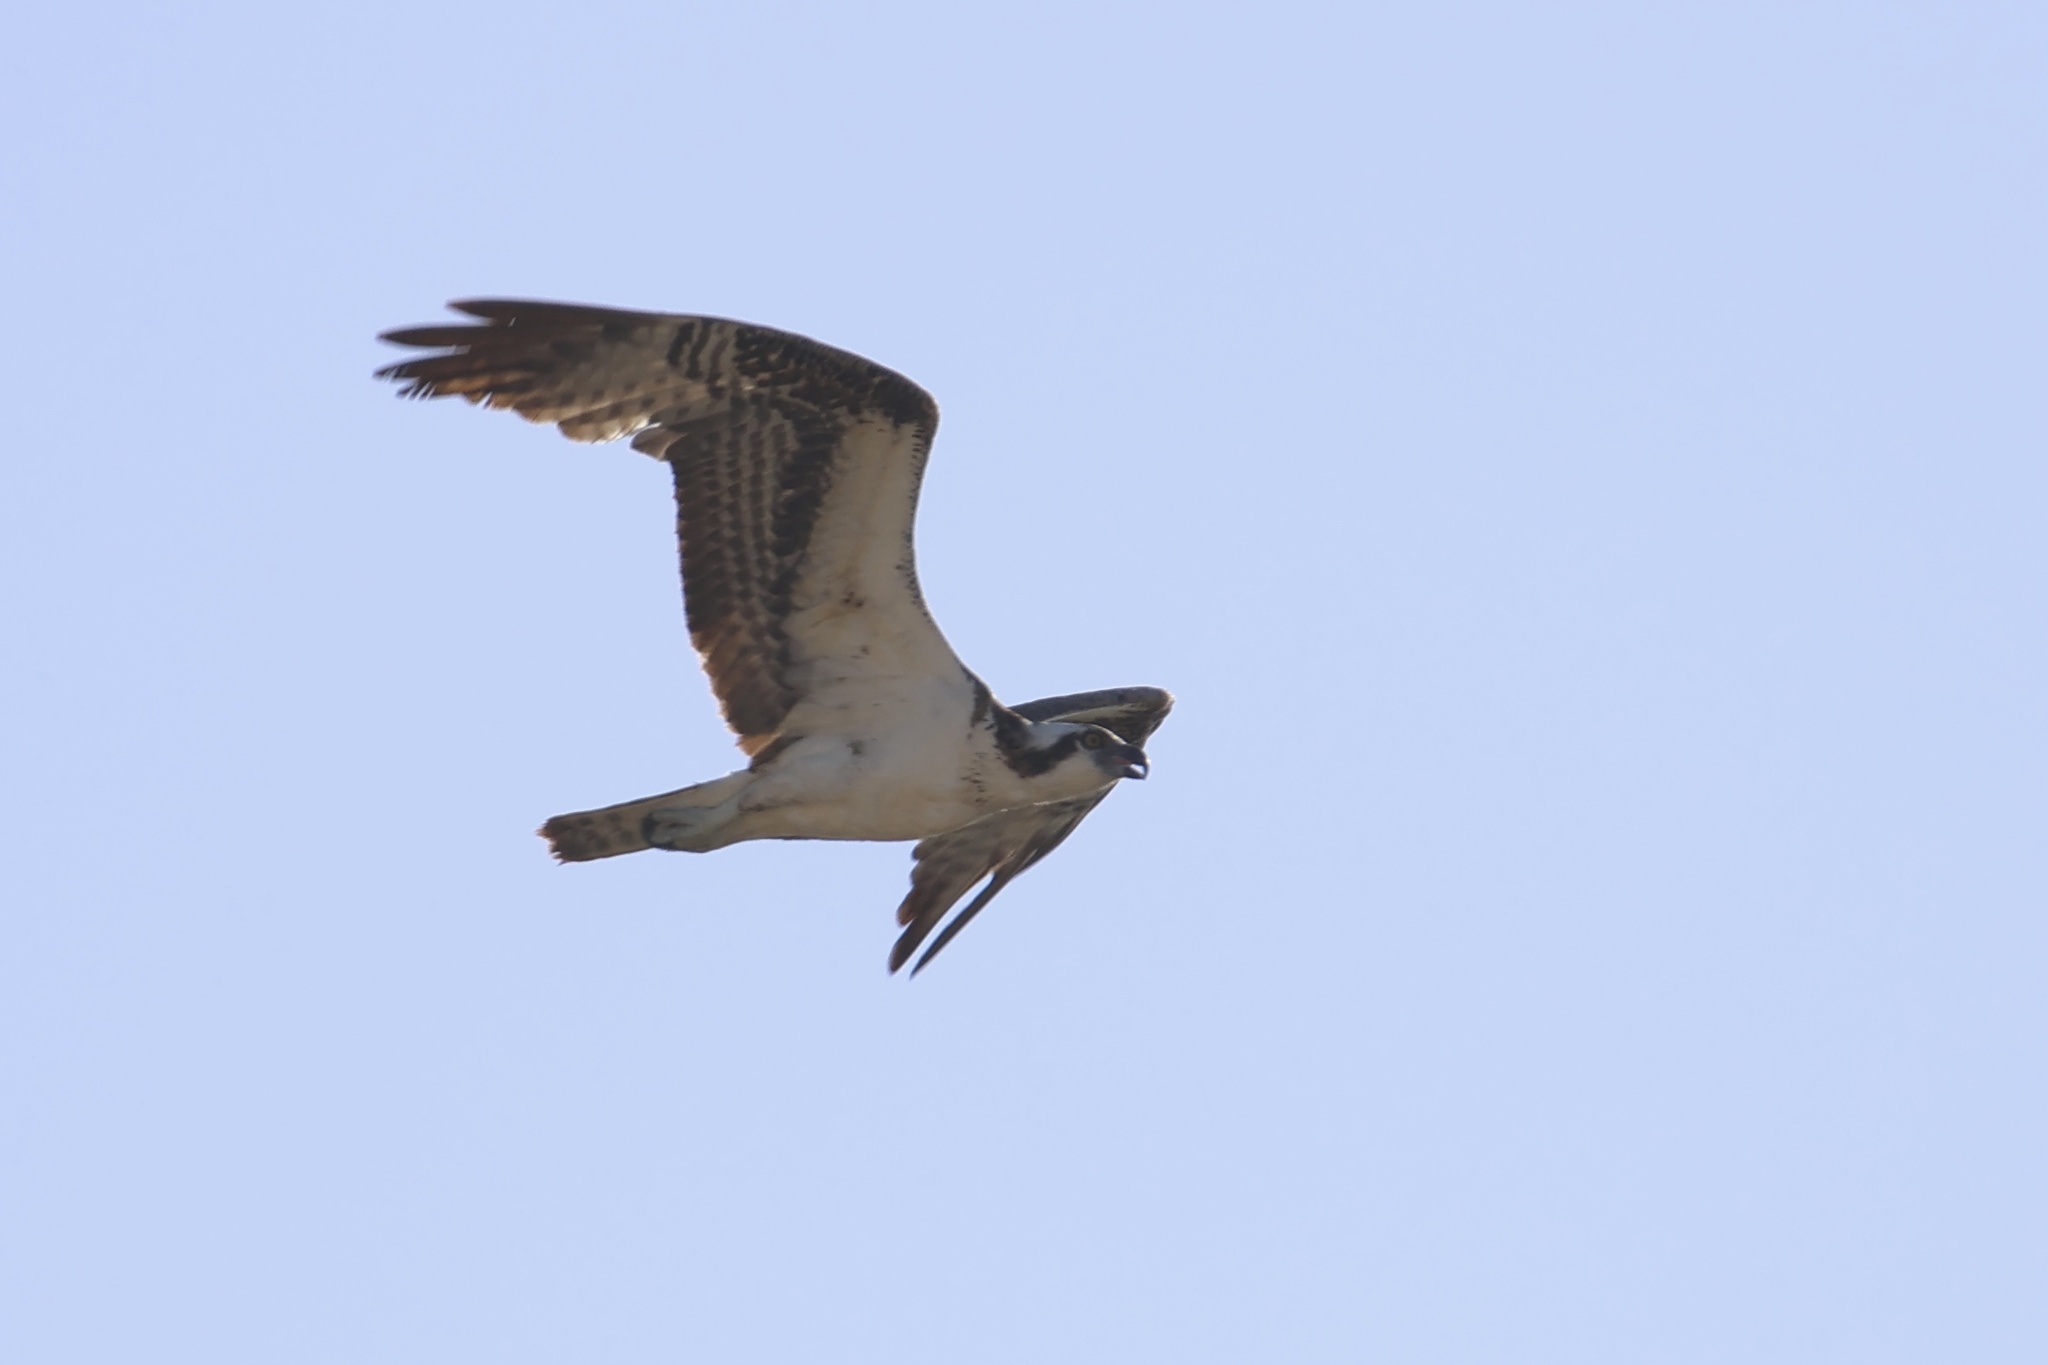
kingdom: Animalia
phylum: Chordata
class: Aves
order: Accipitriformes
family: Pandionidae
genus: Pandion
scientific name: Pandion haliaetus
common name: Osprey
